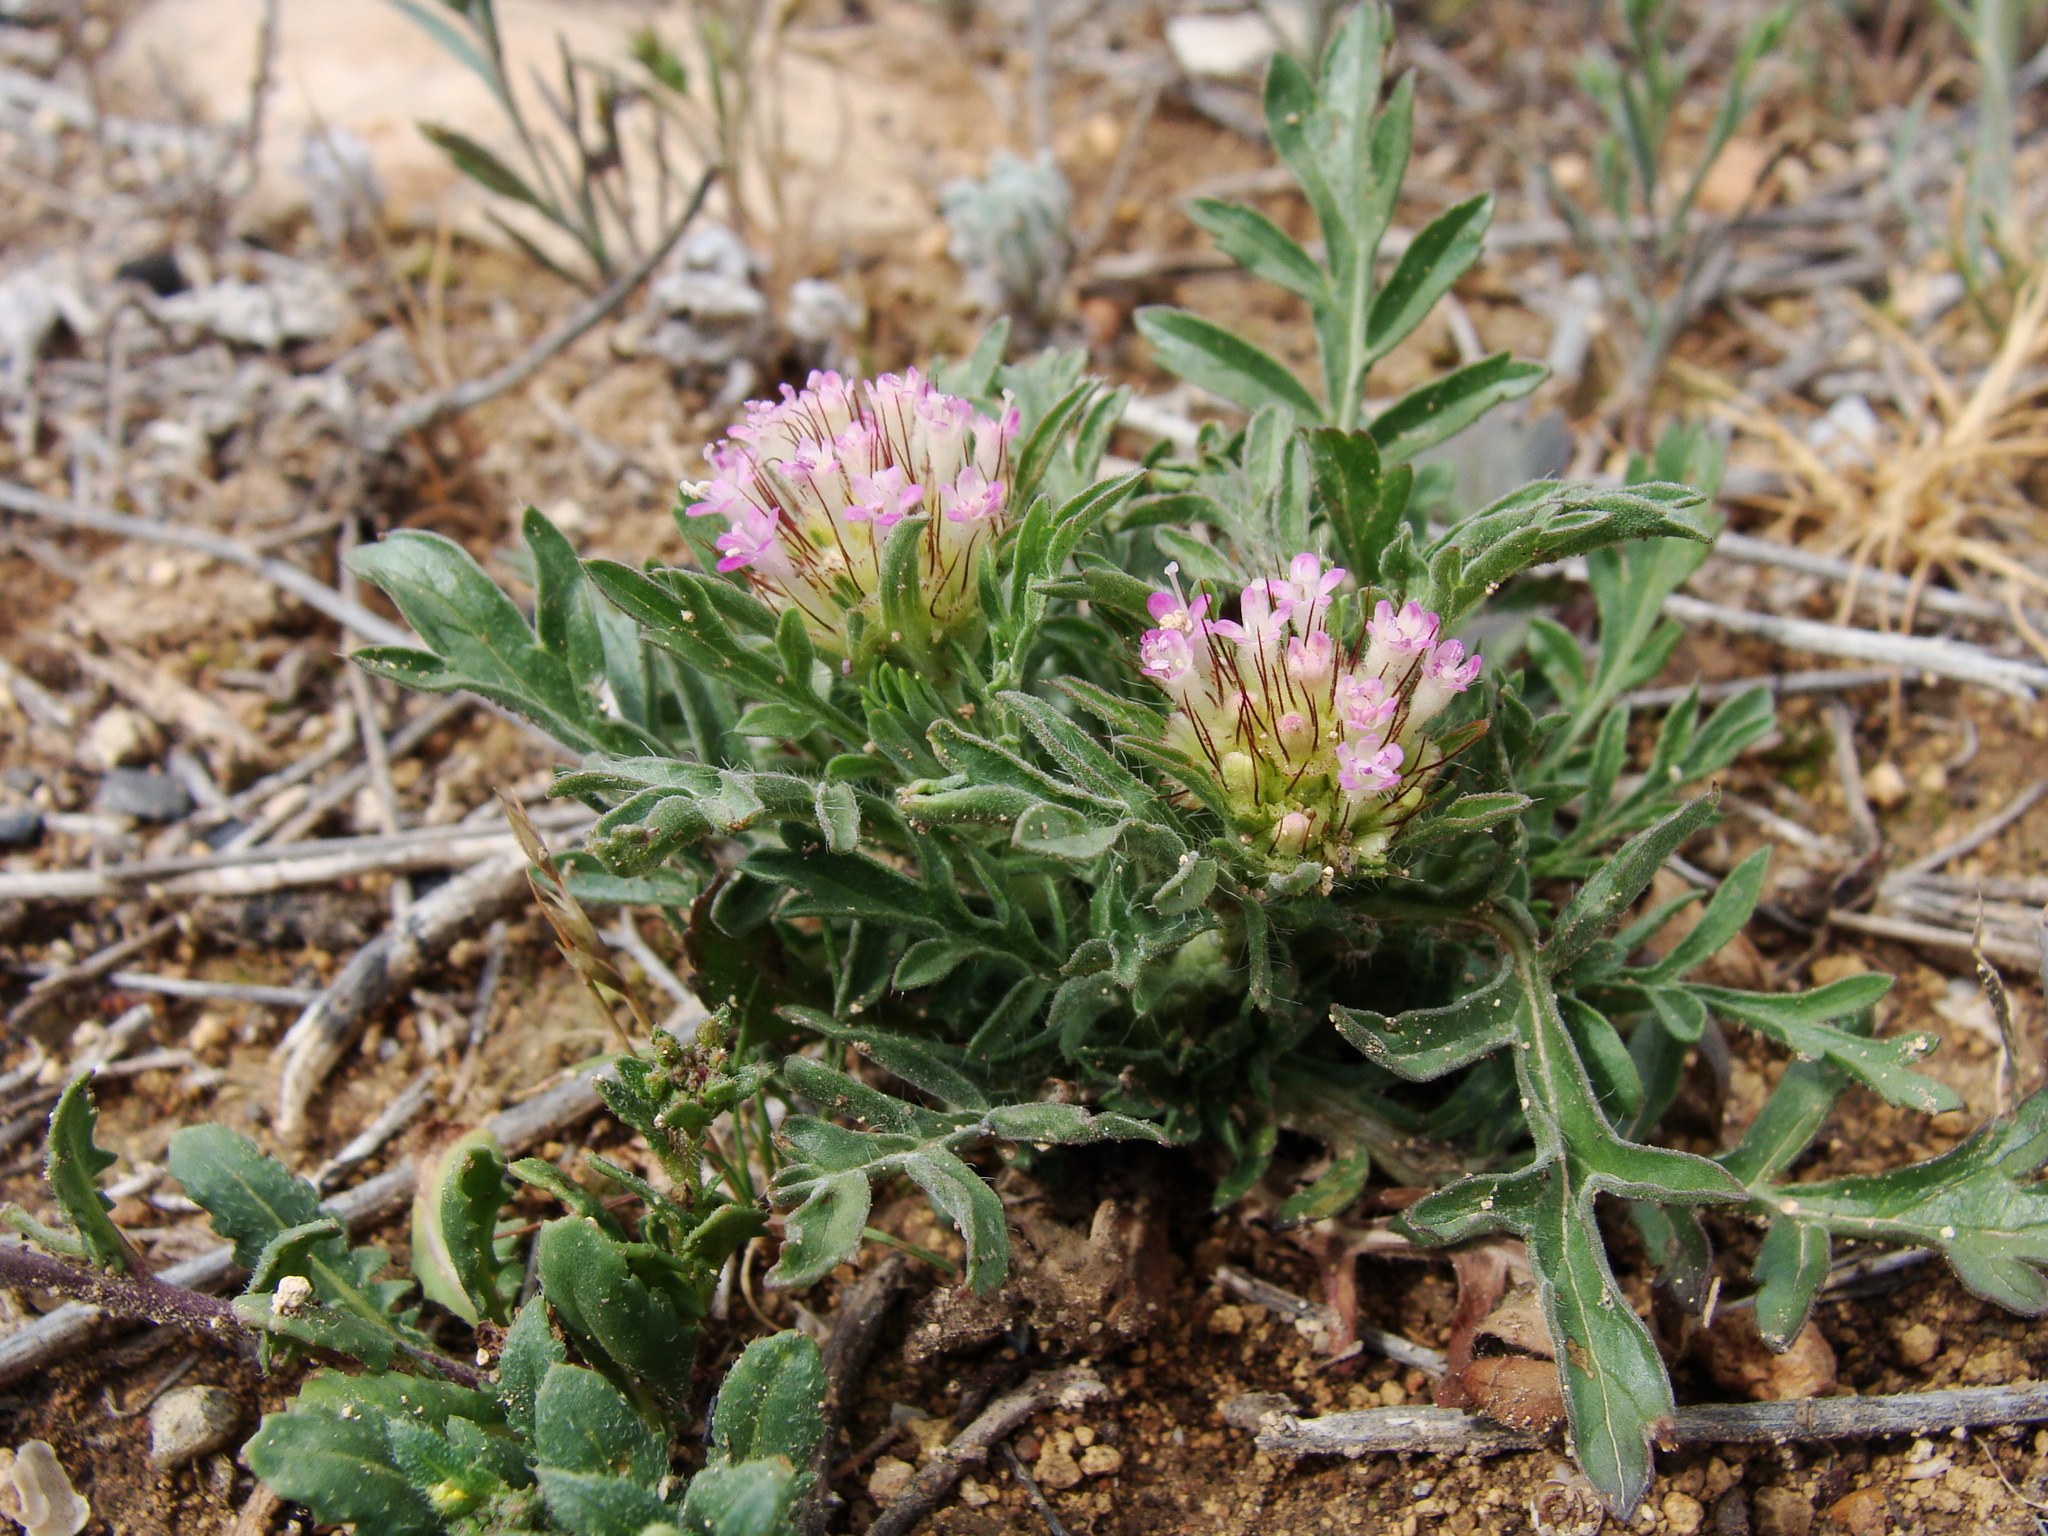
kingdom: Plantae
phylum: Tracheophyta
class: Magnoliopsida
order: Dipsacales
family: Caprifoliaceae
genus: Lomelosia
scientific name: Lomelosia stellata
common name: Teasel
